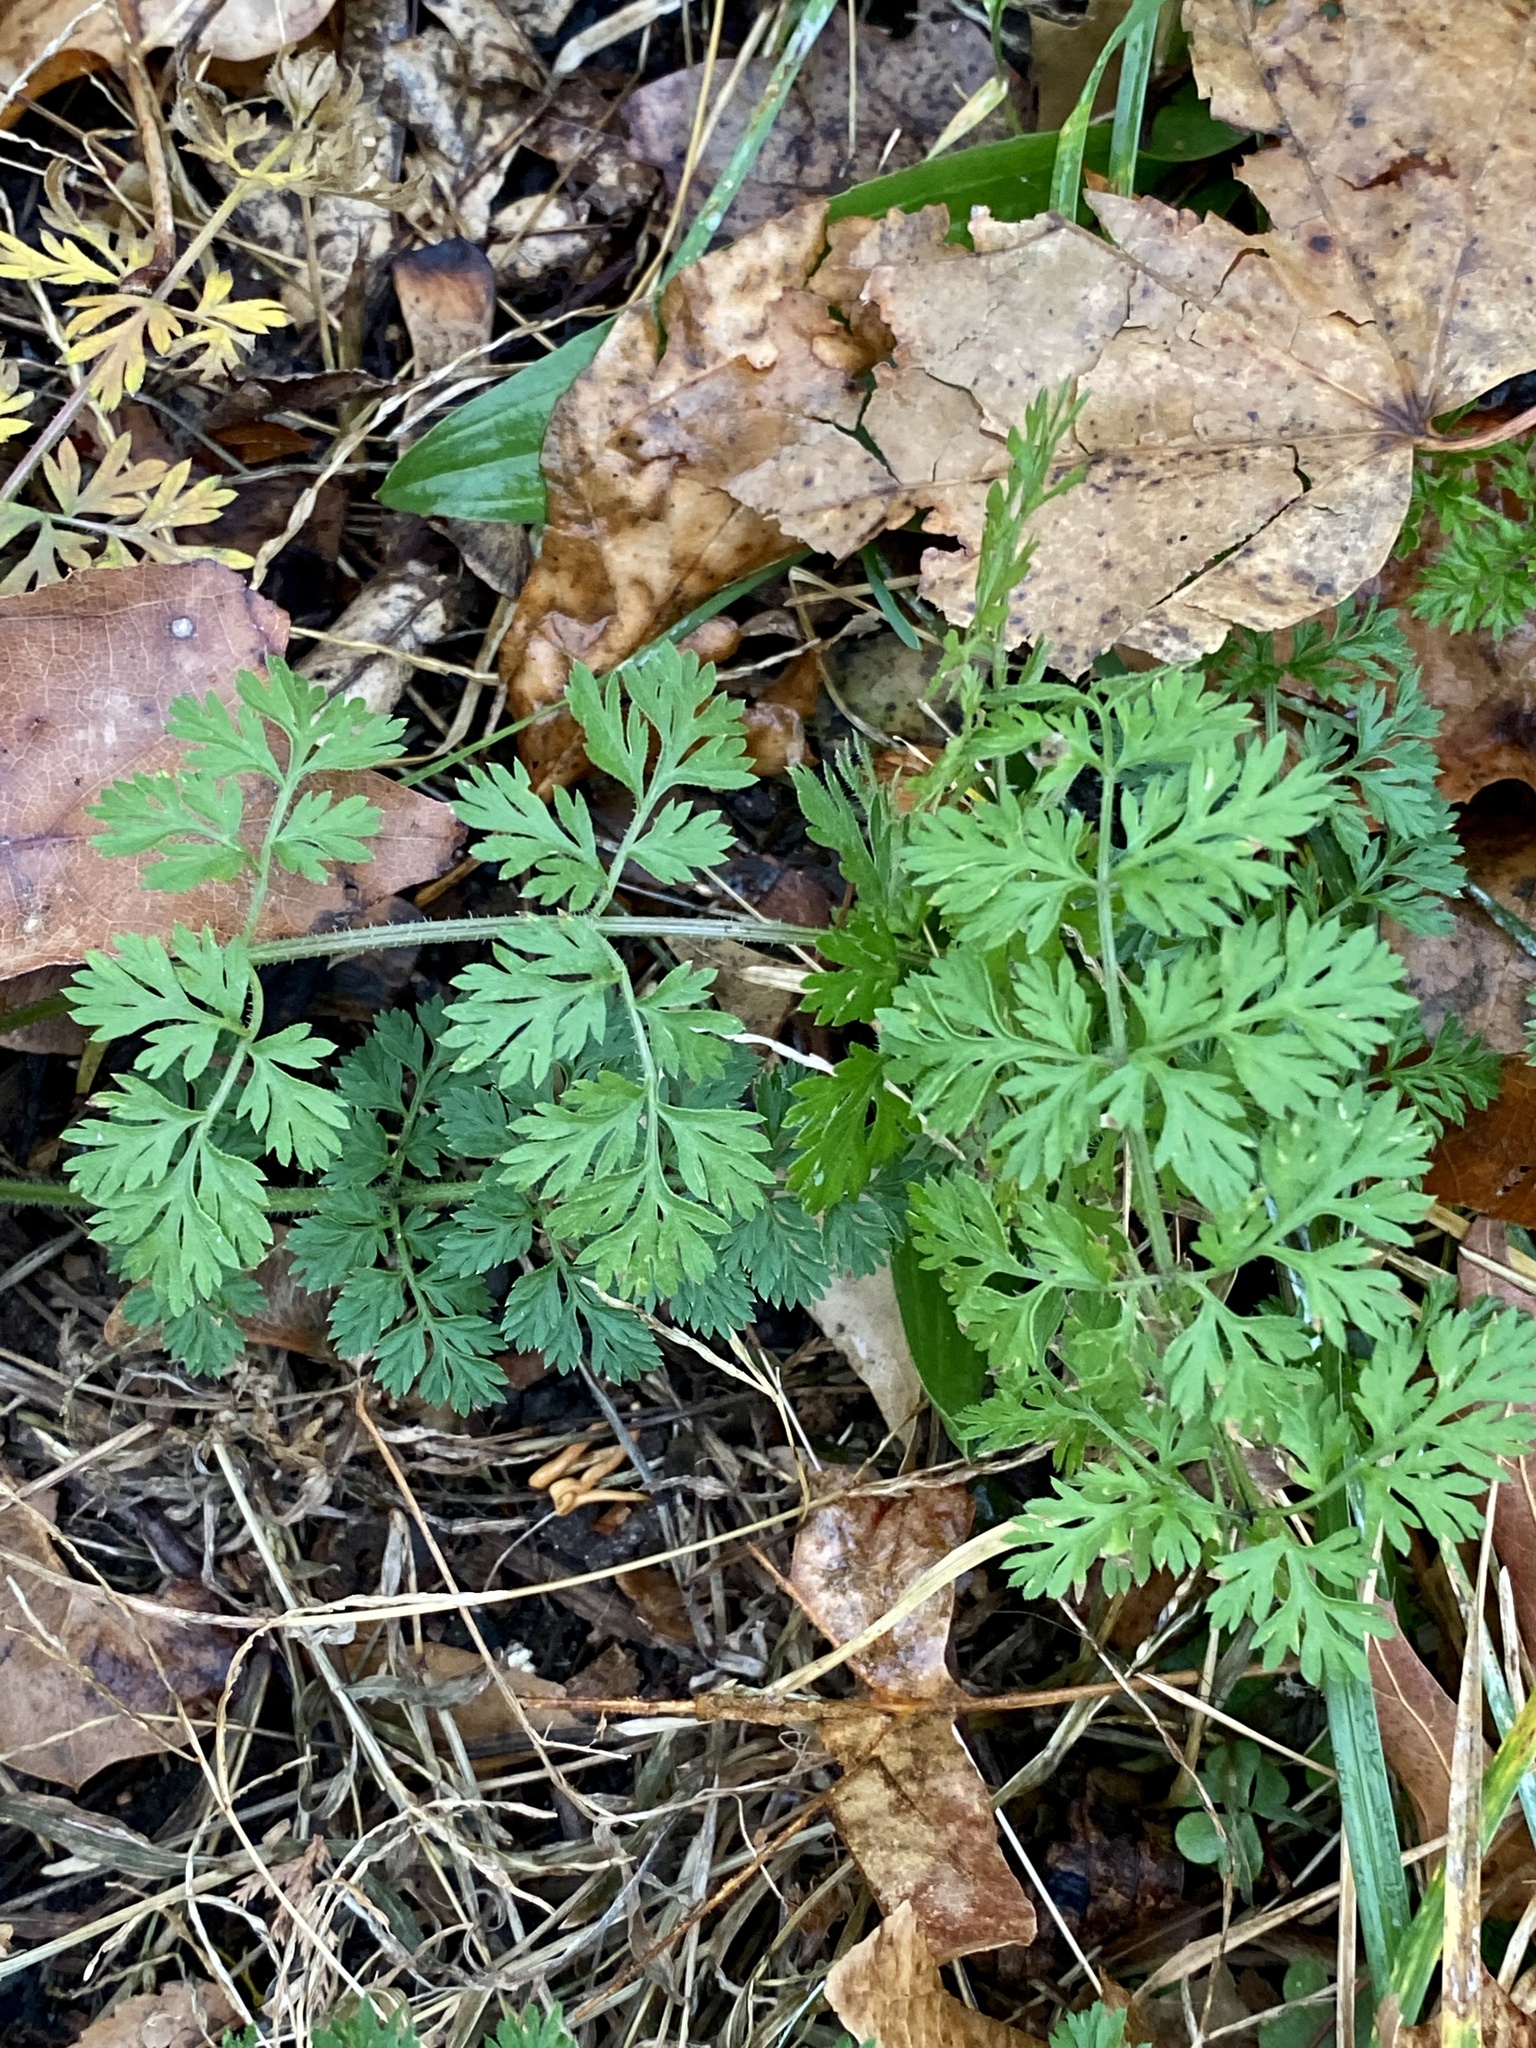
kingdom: Plantae
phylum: Tracheophyta
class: Magnoliopsida
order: Apiales
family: Apiaceae
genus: Daucus
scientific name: Daucus carota
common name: Wild carrot
